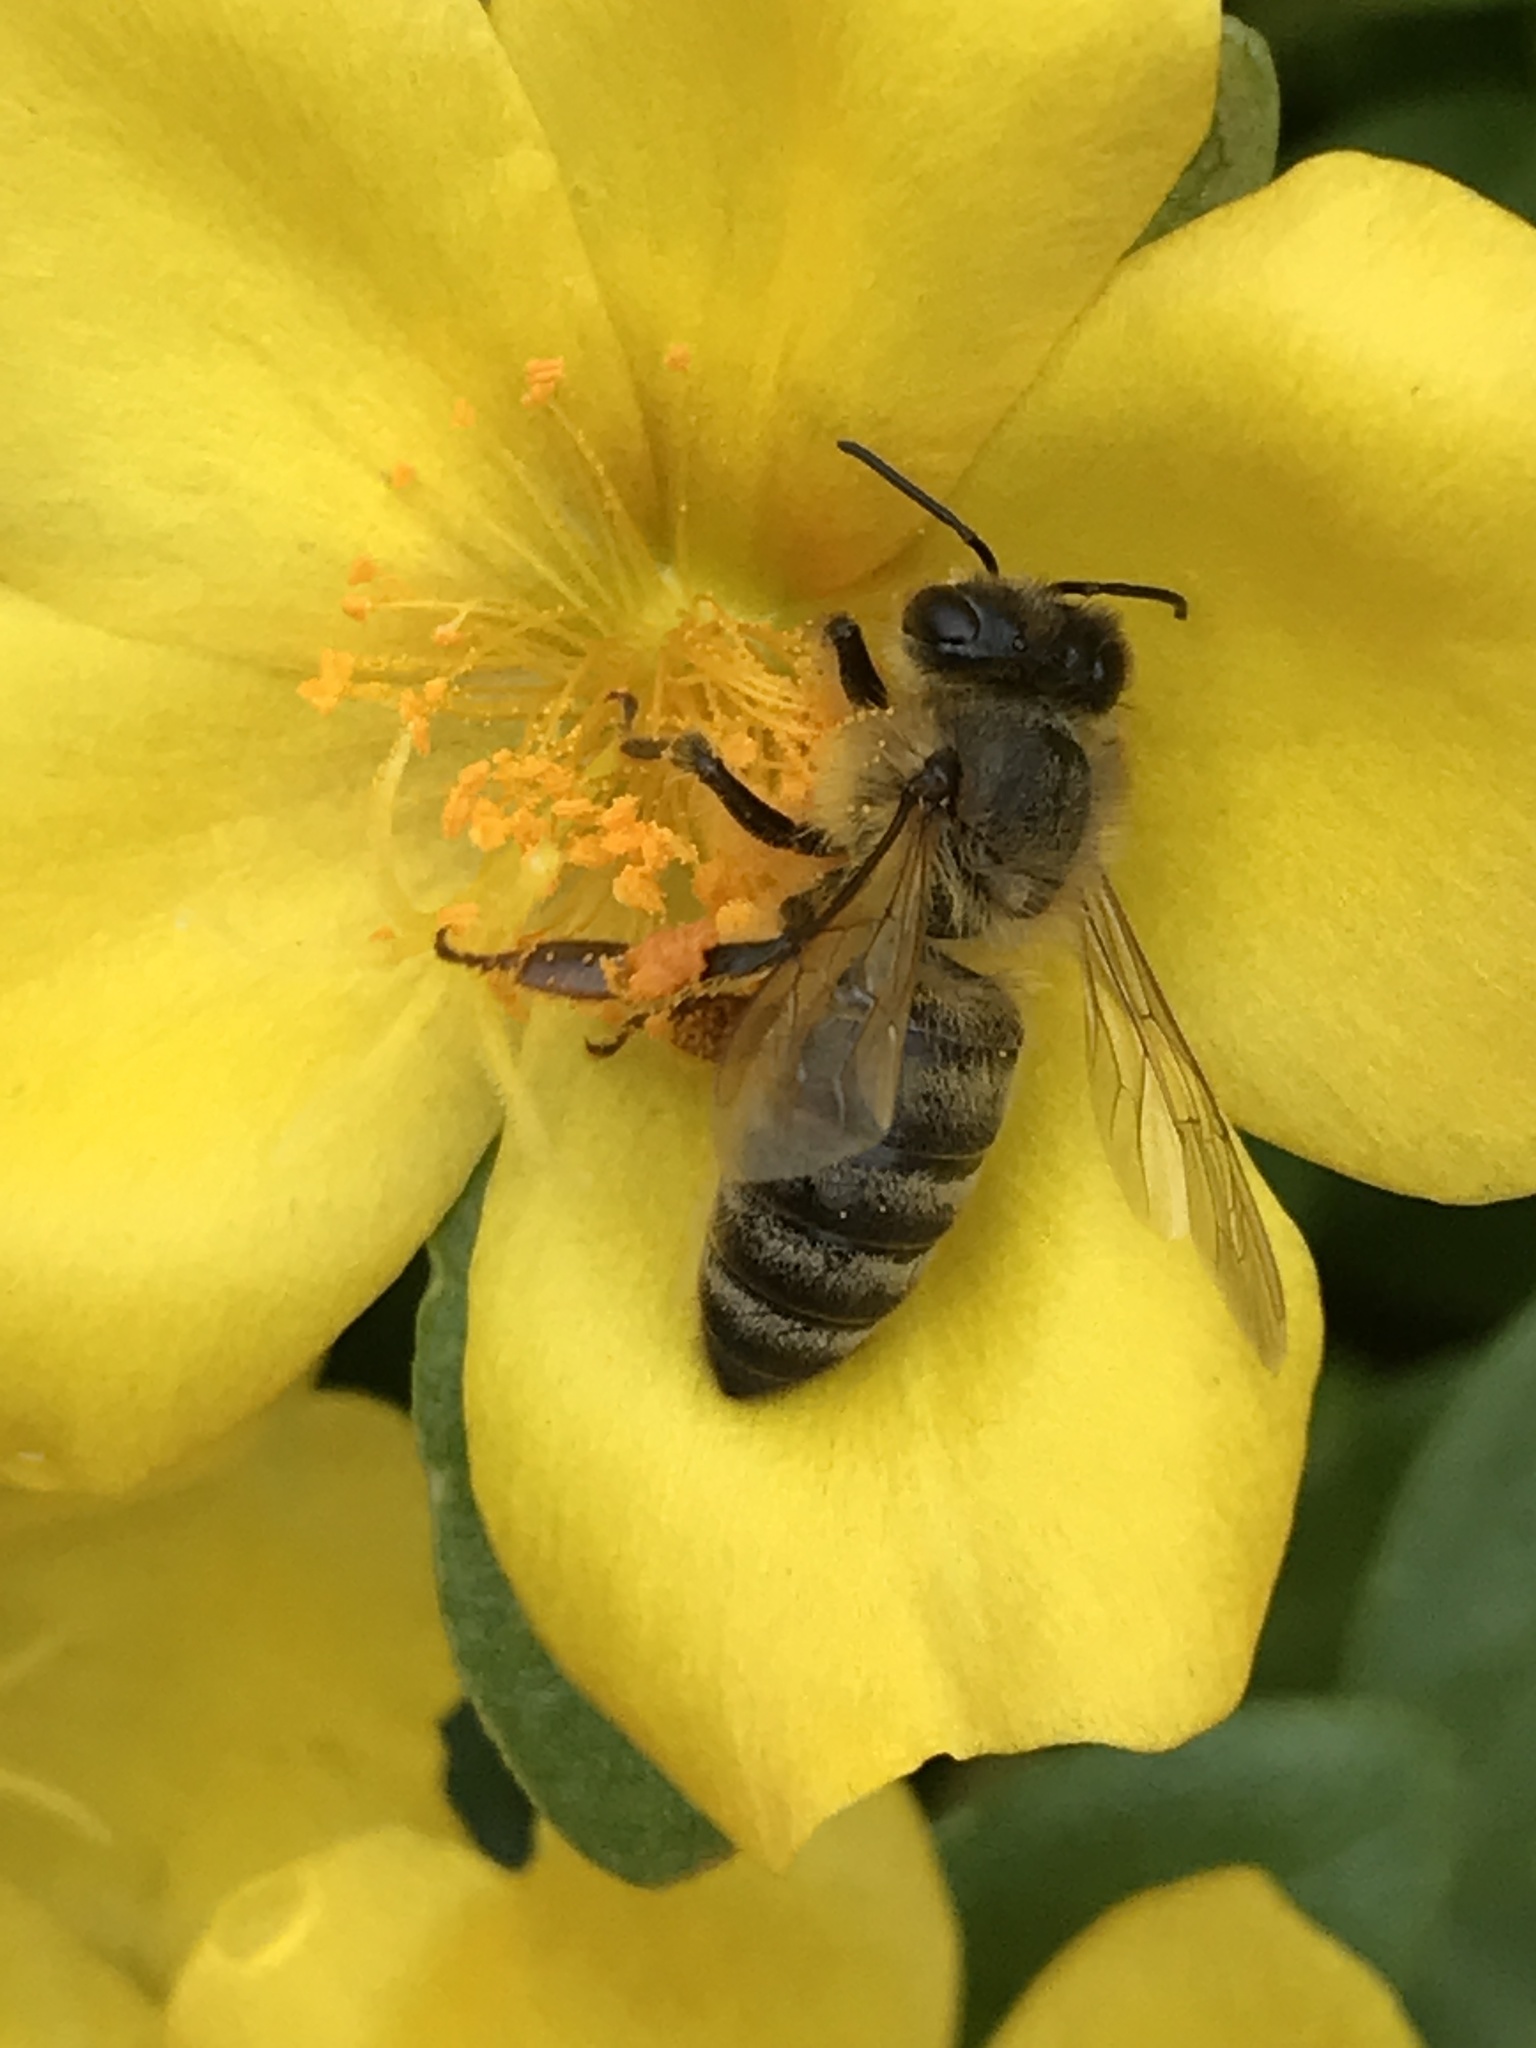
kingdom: Animalia
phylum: Arthropoda
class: Insecta
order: Hymenoptera
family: Apidae
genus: Apis
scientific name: Apis mellifera
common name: Honey bee
